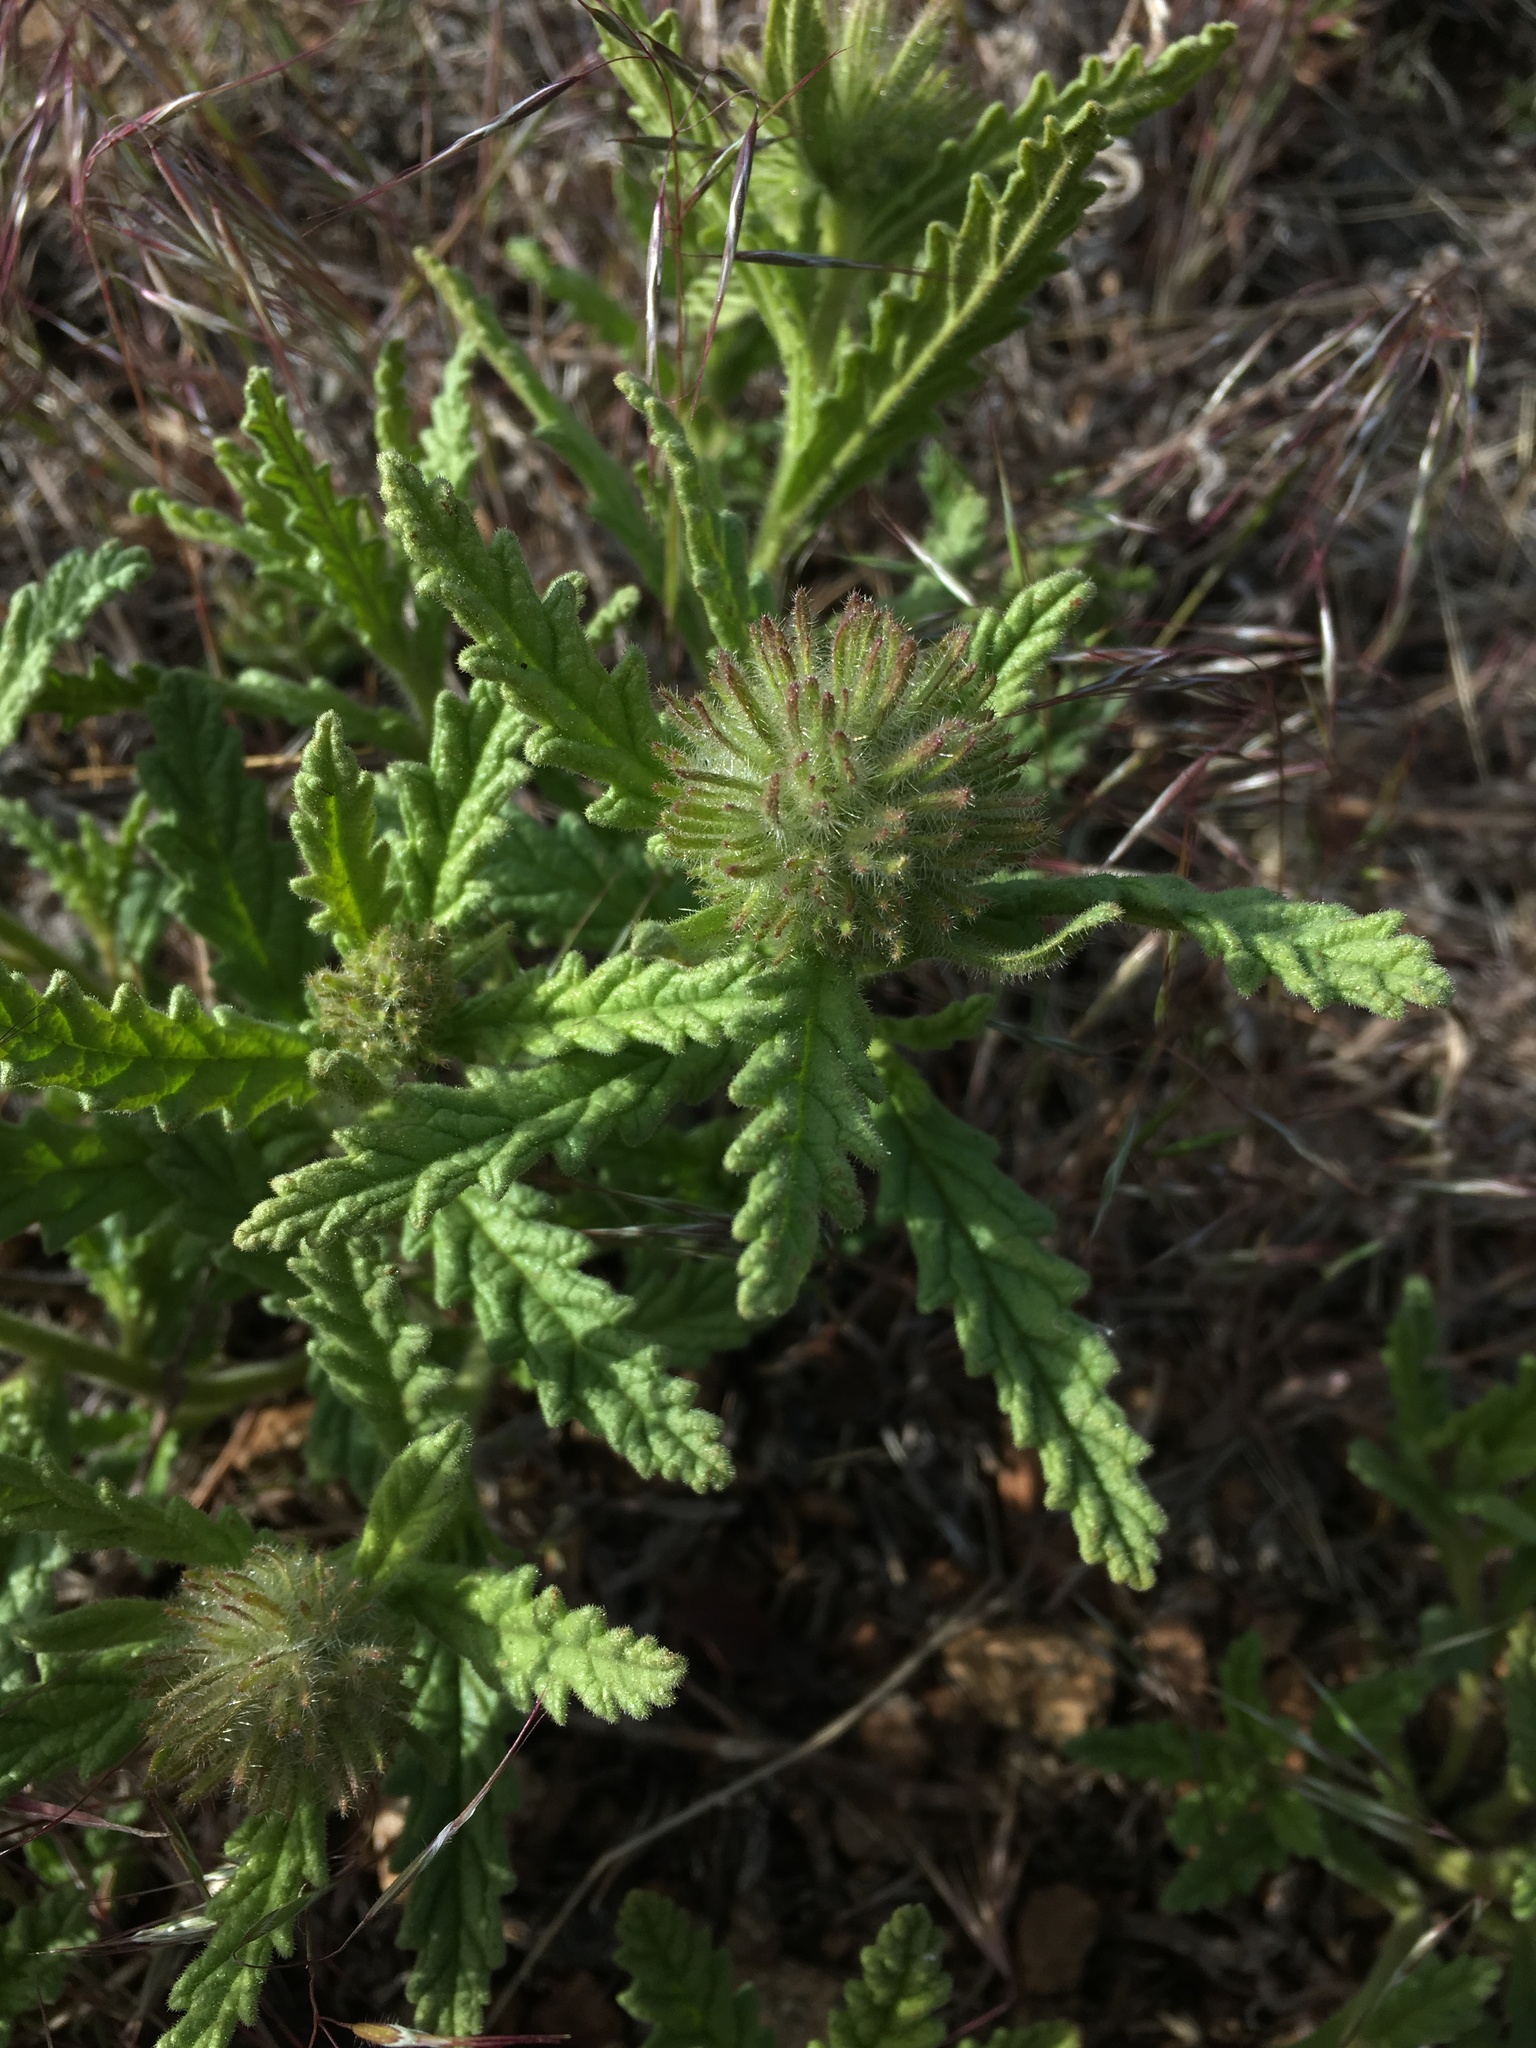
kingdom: Plantae
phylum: Tracheophyta
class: Magnoliopsida
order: Boraginales
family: Namaceae
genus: Nama
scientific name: Nama rothrockii
